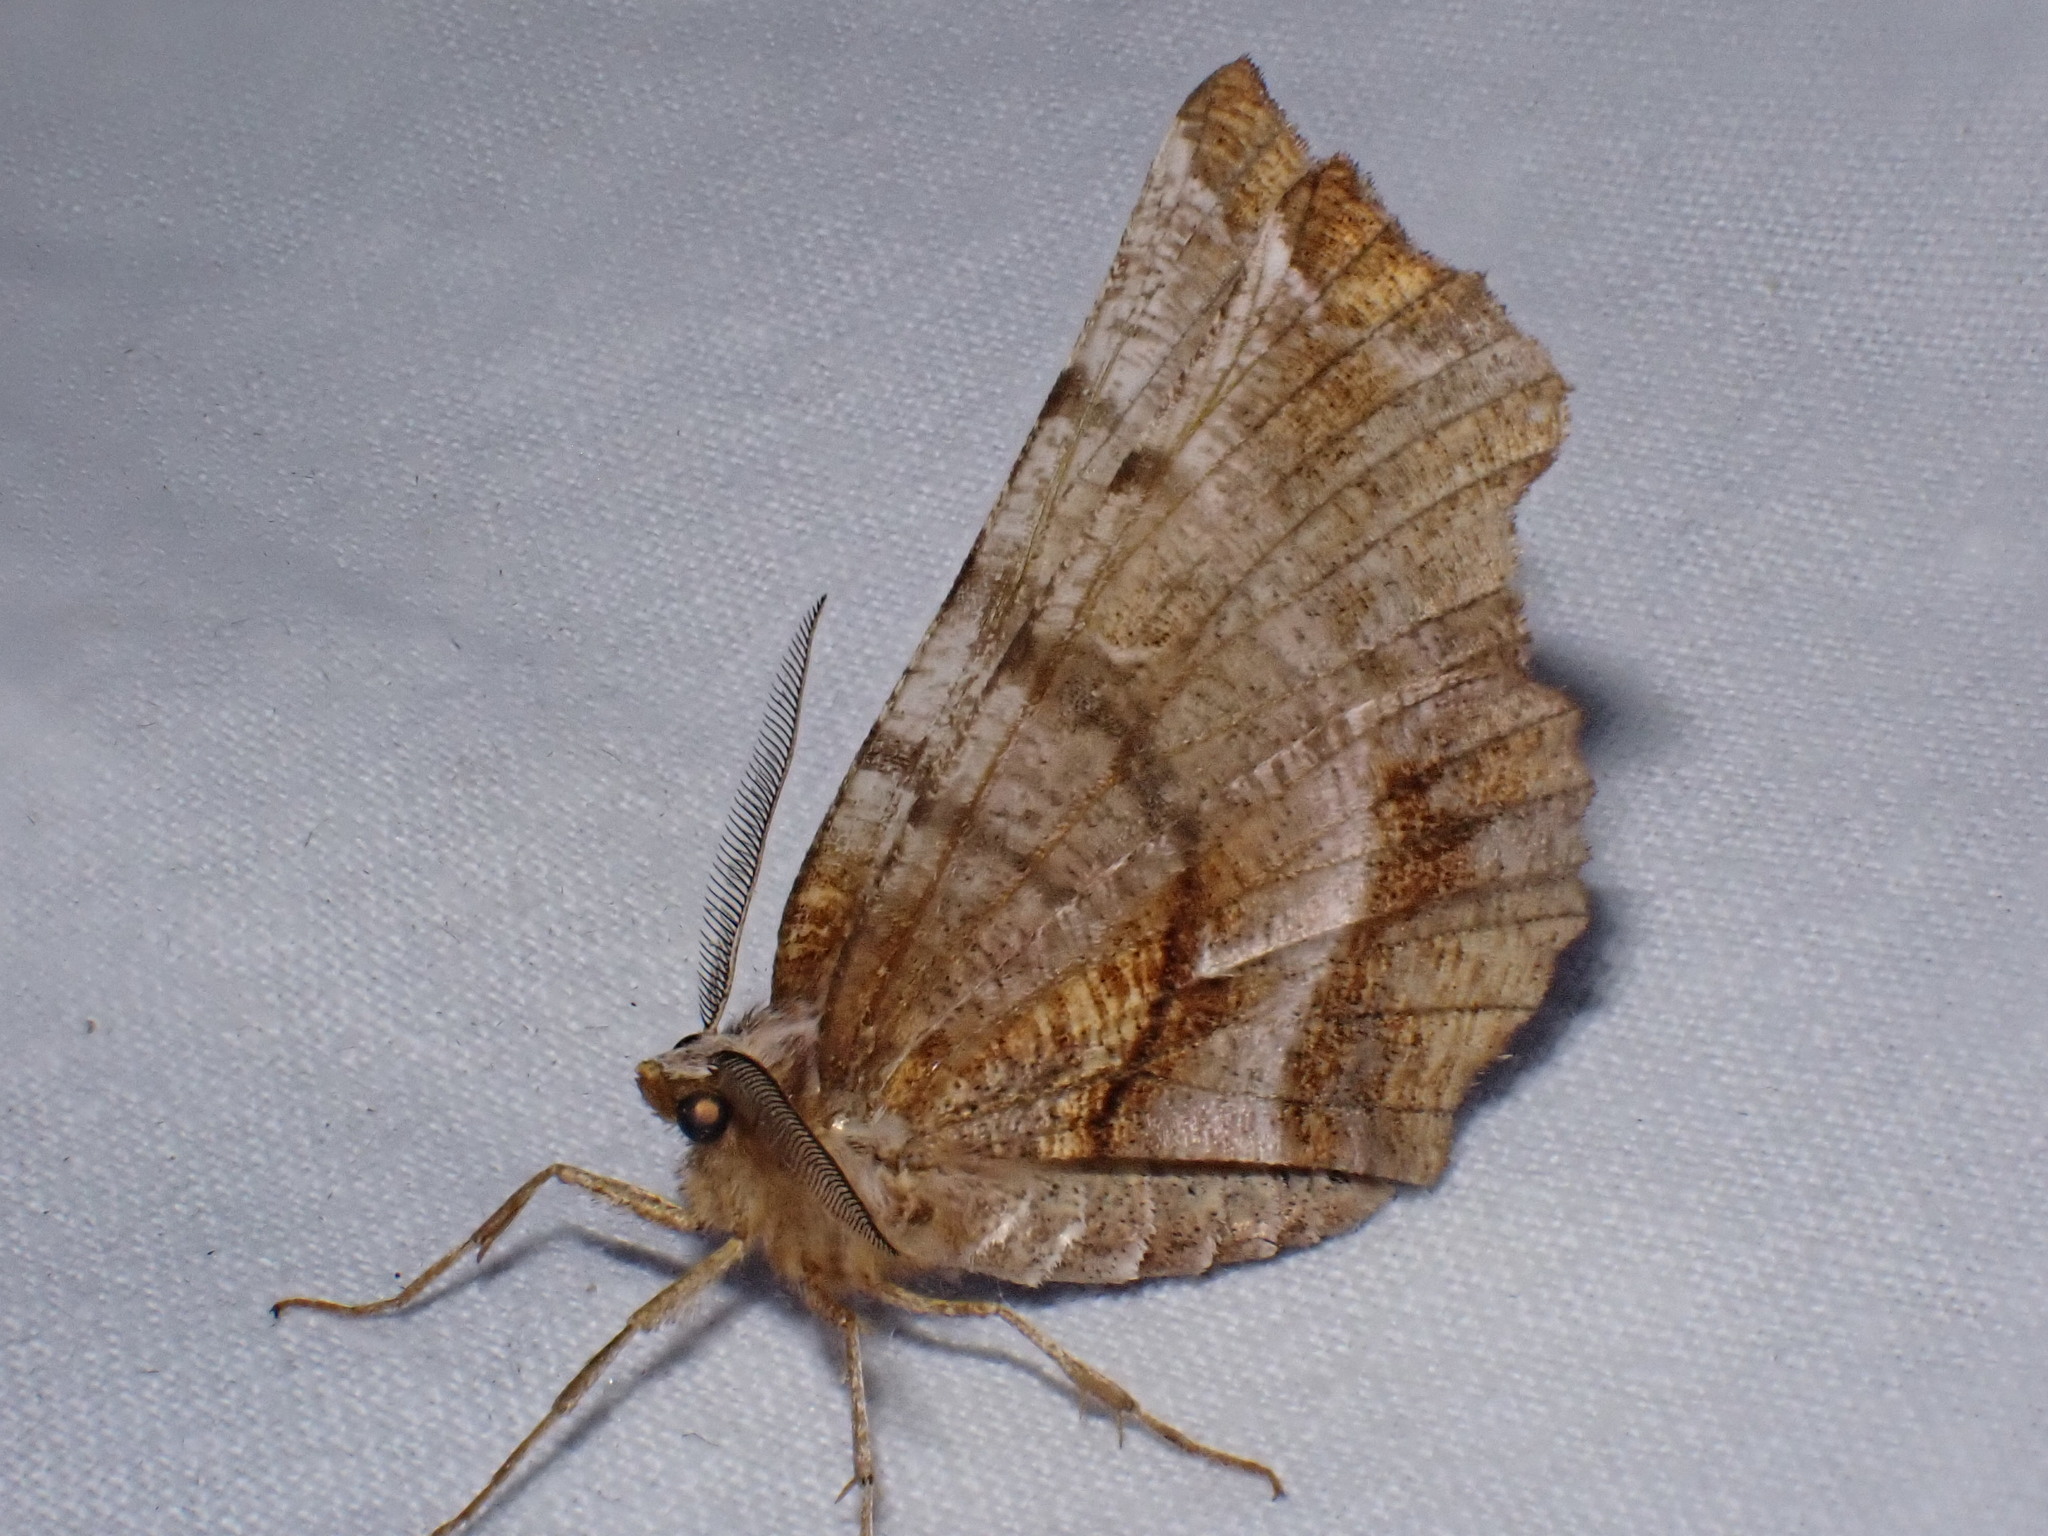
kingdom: Animalia
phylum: Arthropoda
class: Insecta
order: Lepidoptera
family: Geometridae
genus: Selenia
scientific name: Selenia dentaria
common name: Early thorn
